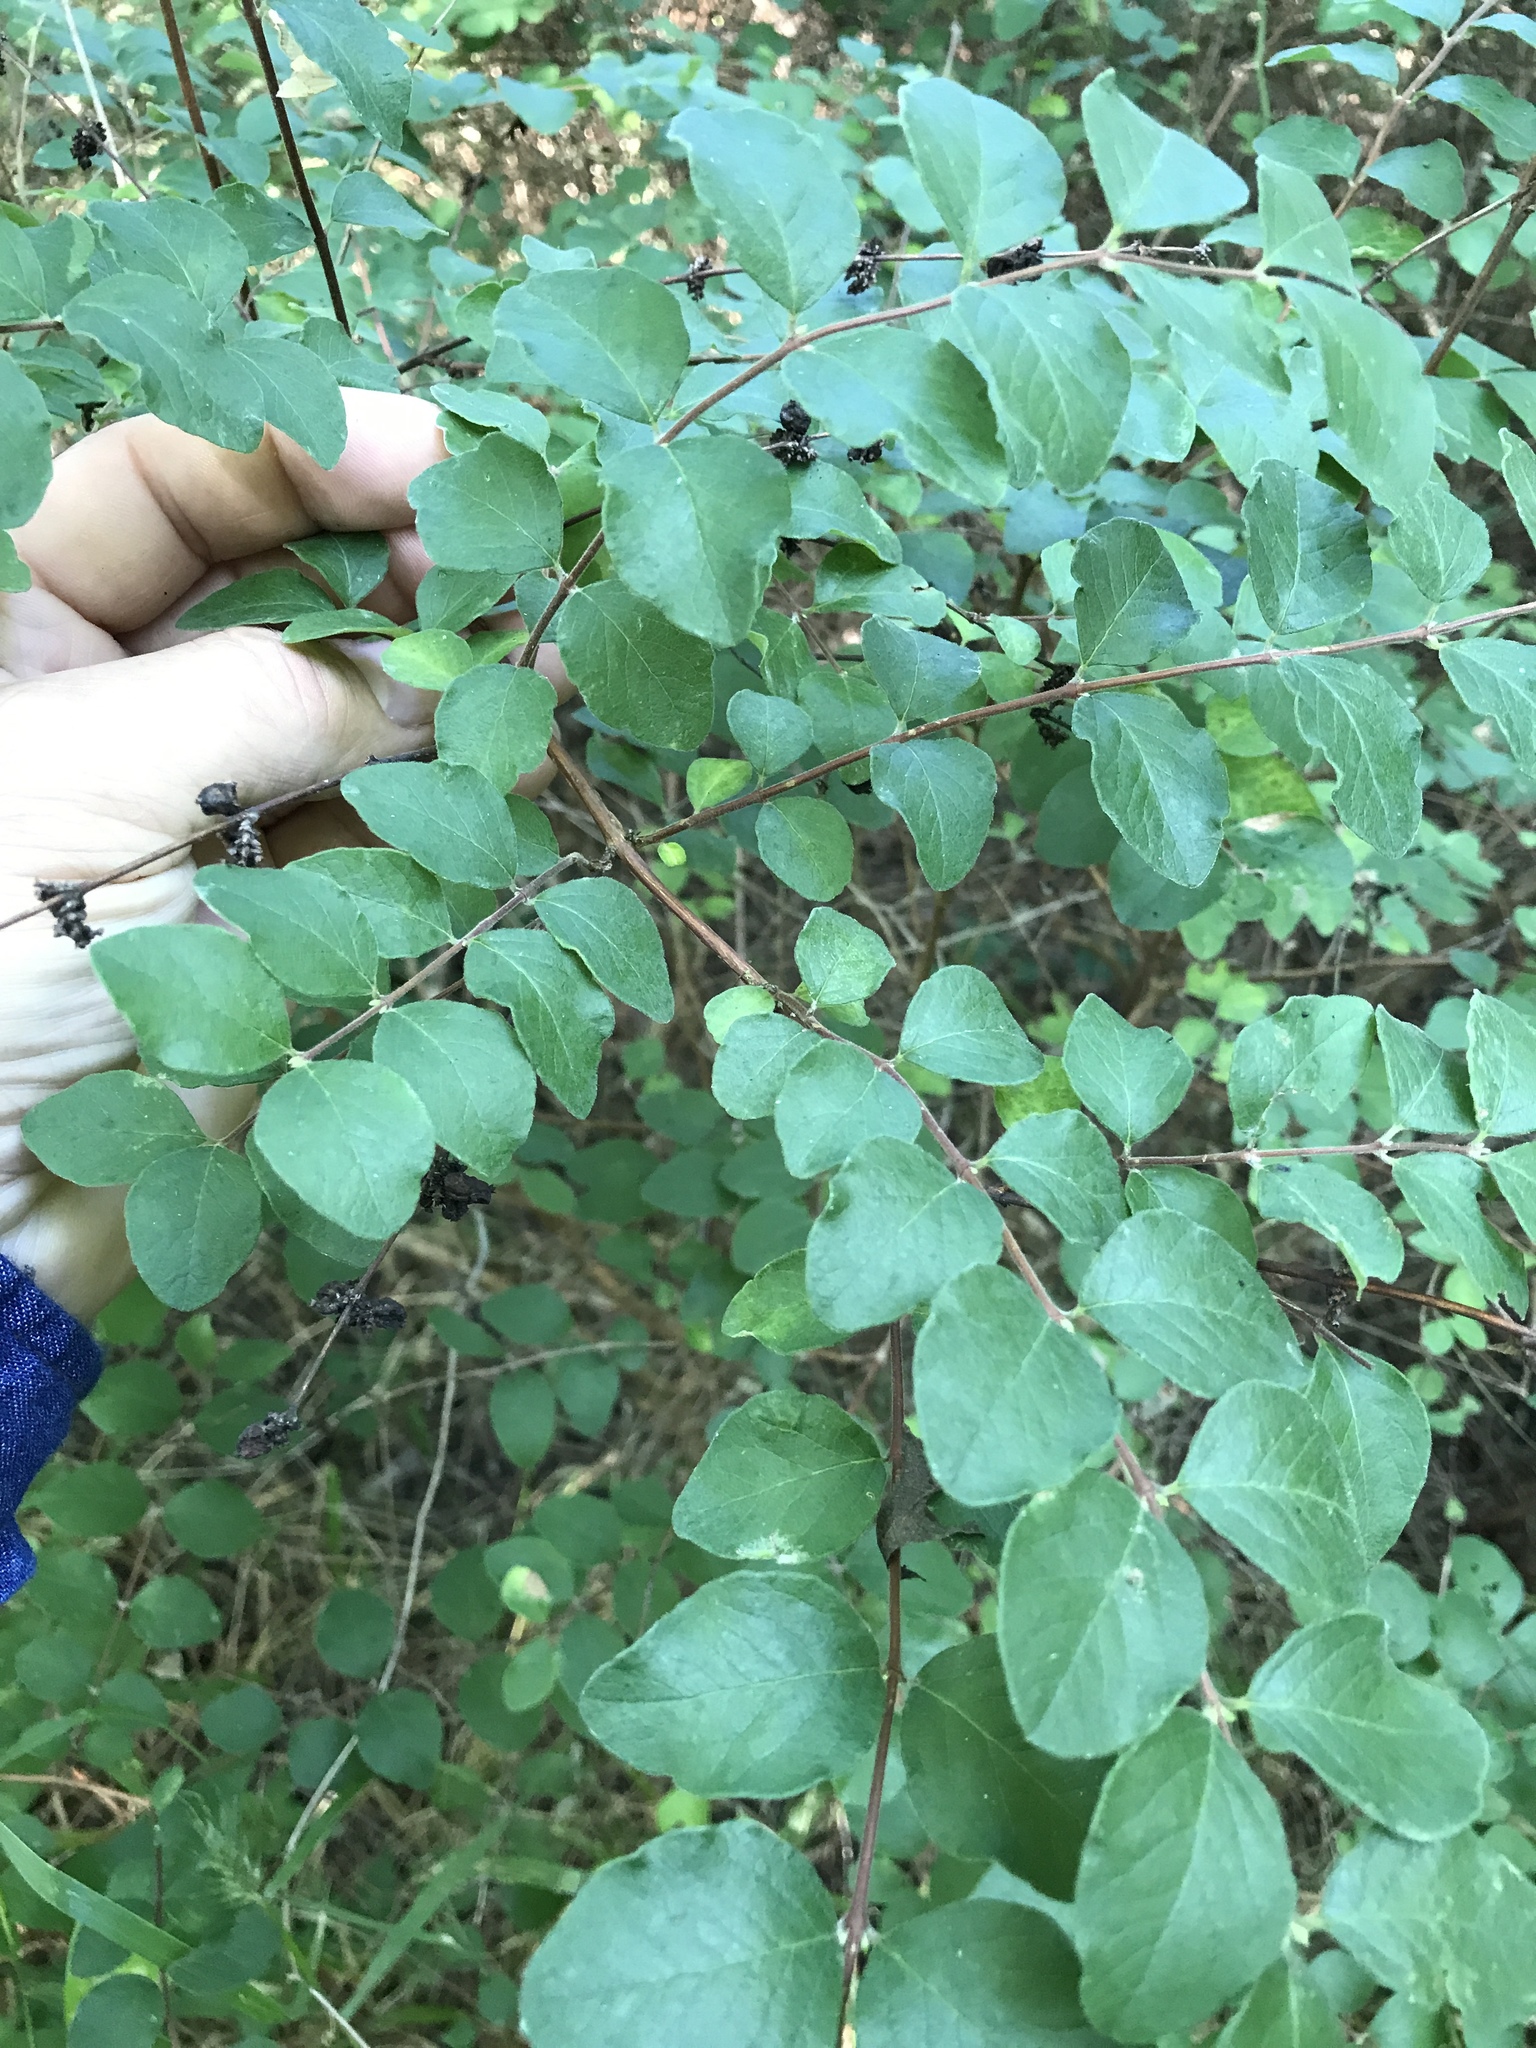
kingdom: Plantae
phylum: Tracheophyta
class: Magnoliopsida
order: Dipsacales
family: Caprifoliaceae
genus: Symphoricarpos
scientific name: Symphoricarpos orbiculatus
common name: Coralberry
